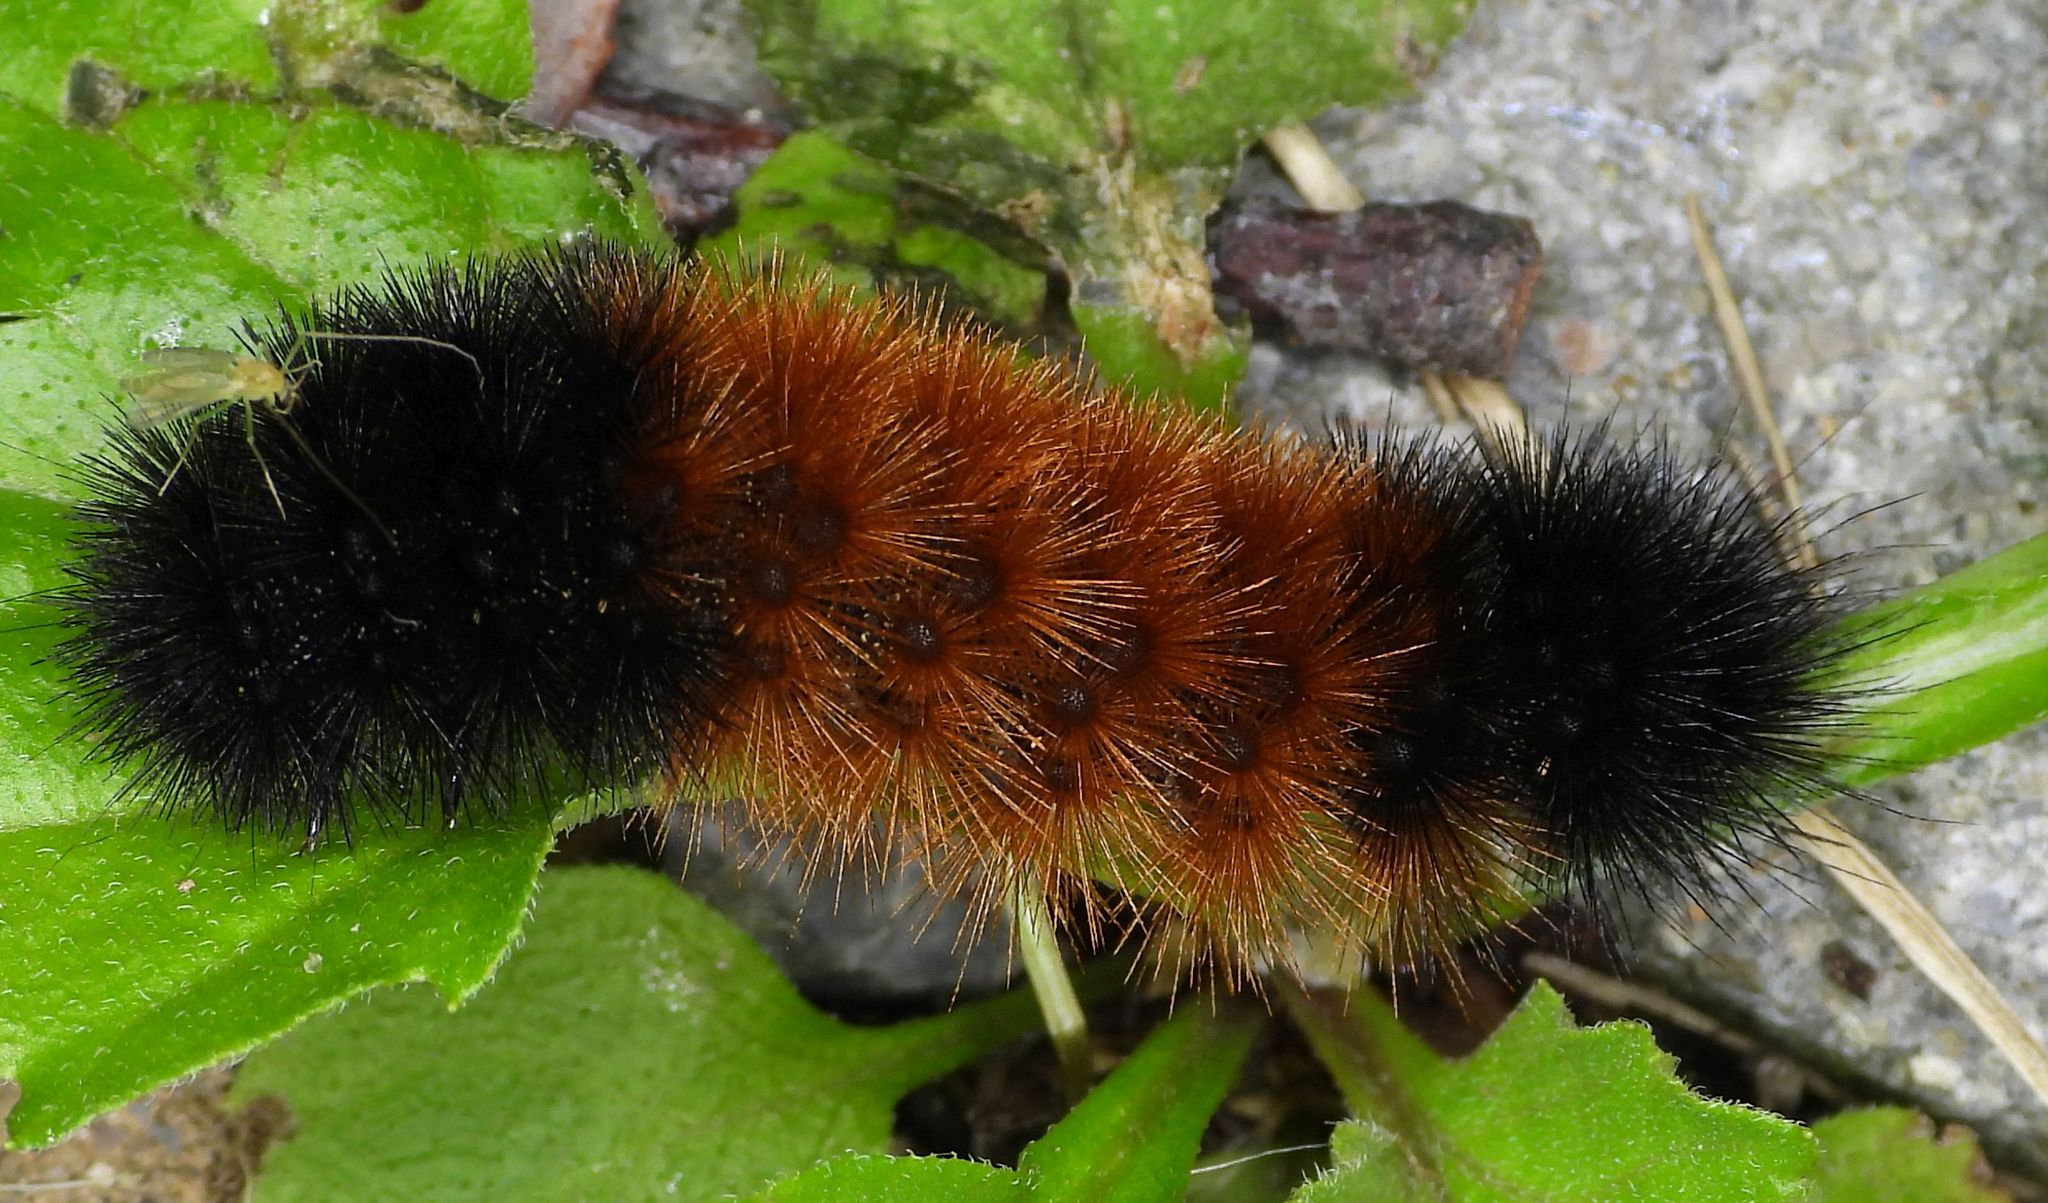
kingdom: Animalia
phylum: Arthropoda
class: Insecta
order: Lepidoptera
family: Erebidae
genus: Pyrrharctia
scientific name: Pyrrharctia isabella
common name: Isabella tiger moth
